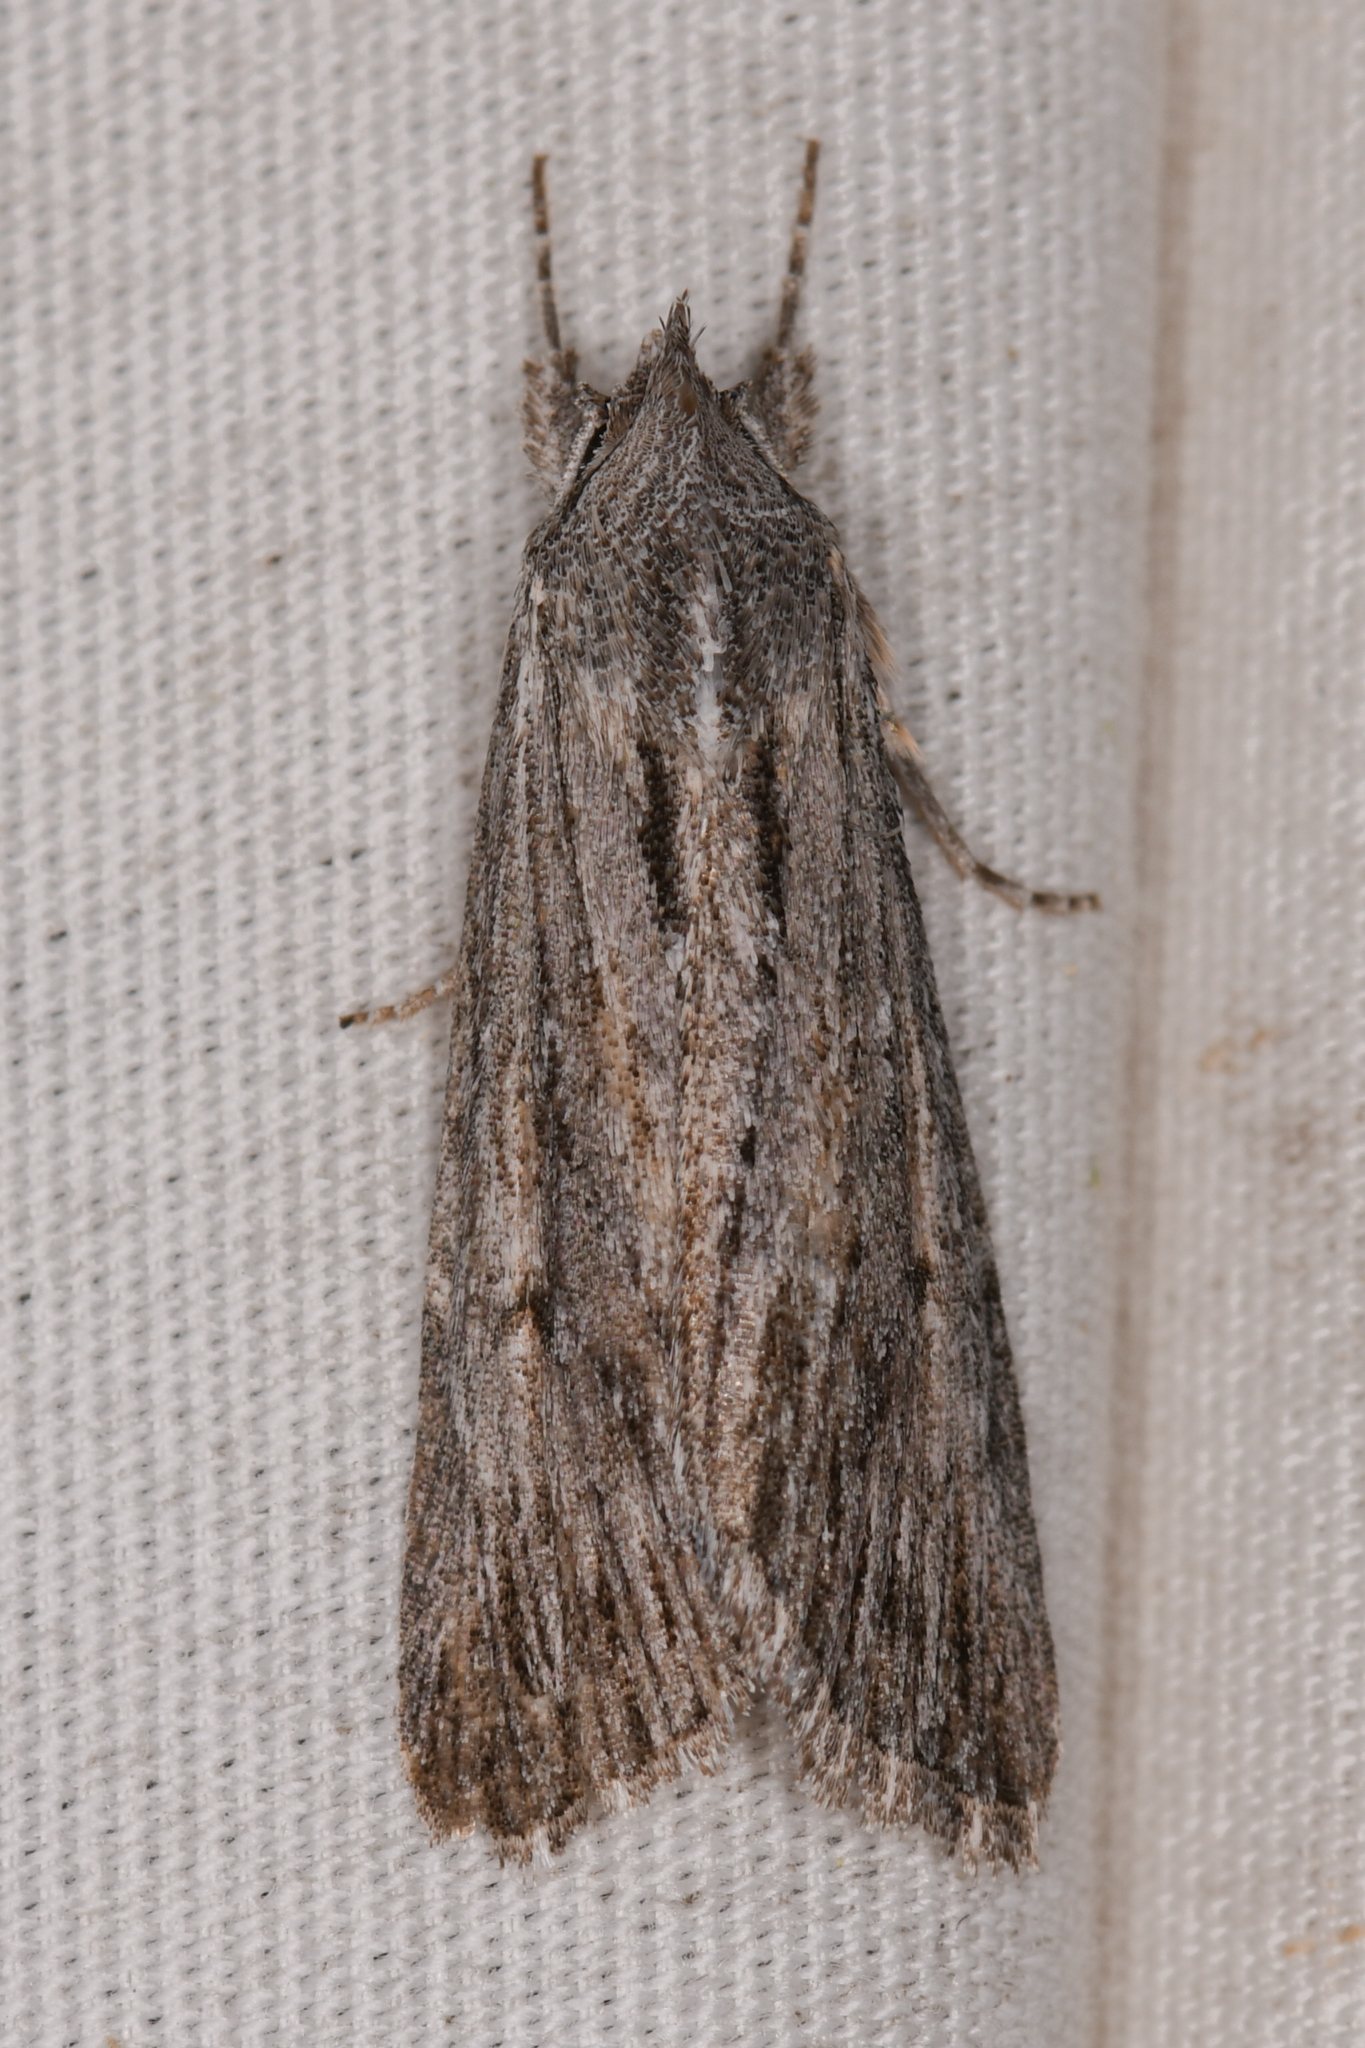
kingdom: Animalia
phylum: Arthropoda
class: Insecta
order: Lepidoptera
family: Noctuidae
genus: Catabena
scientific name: Catabena sagittata
